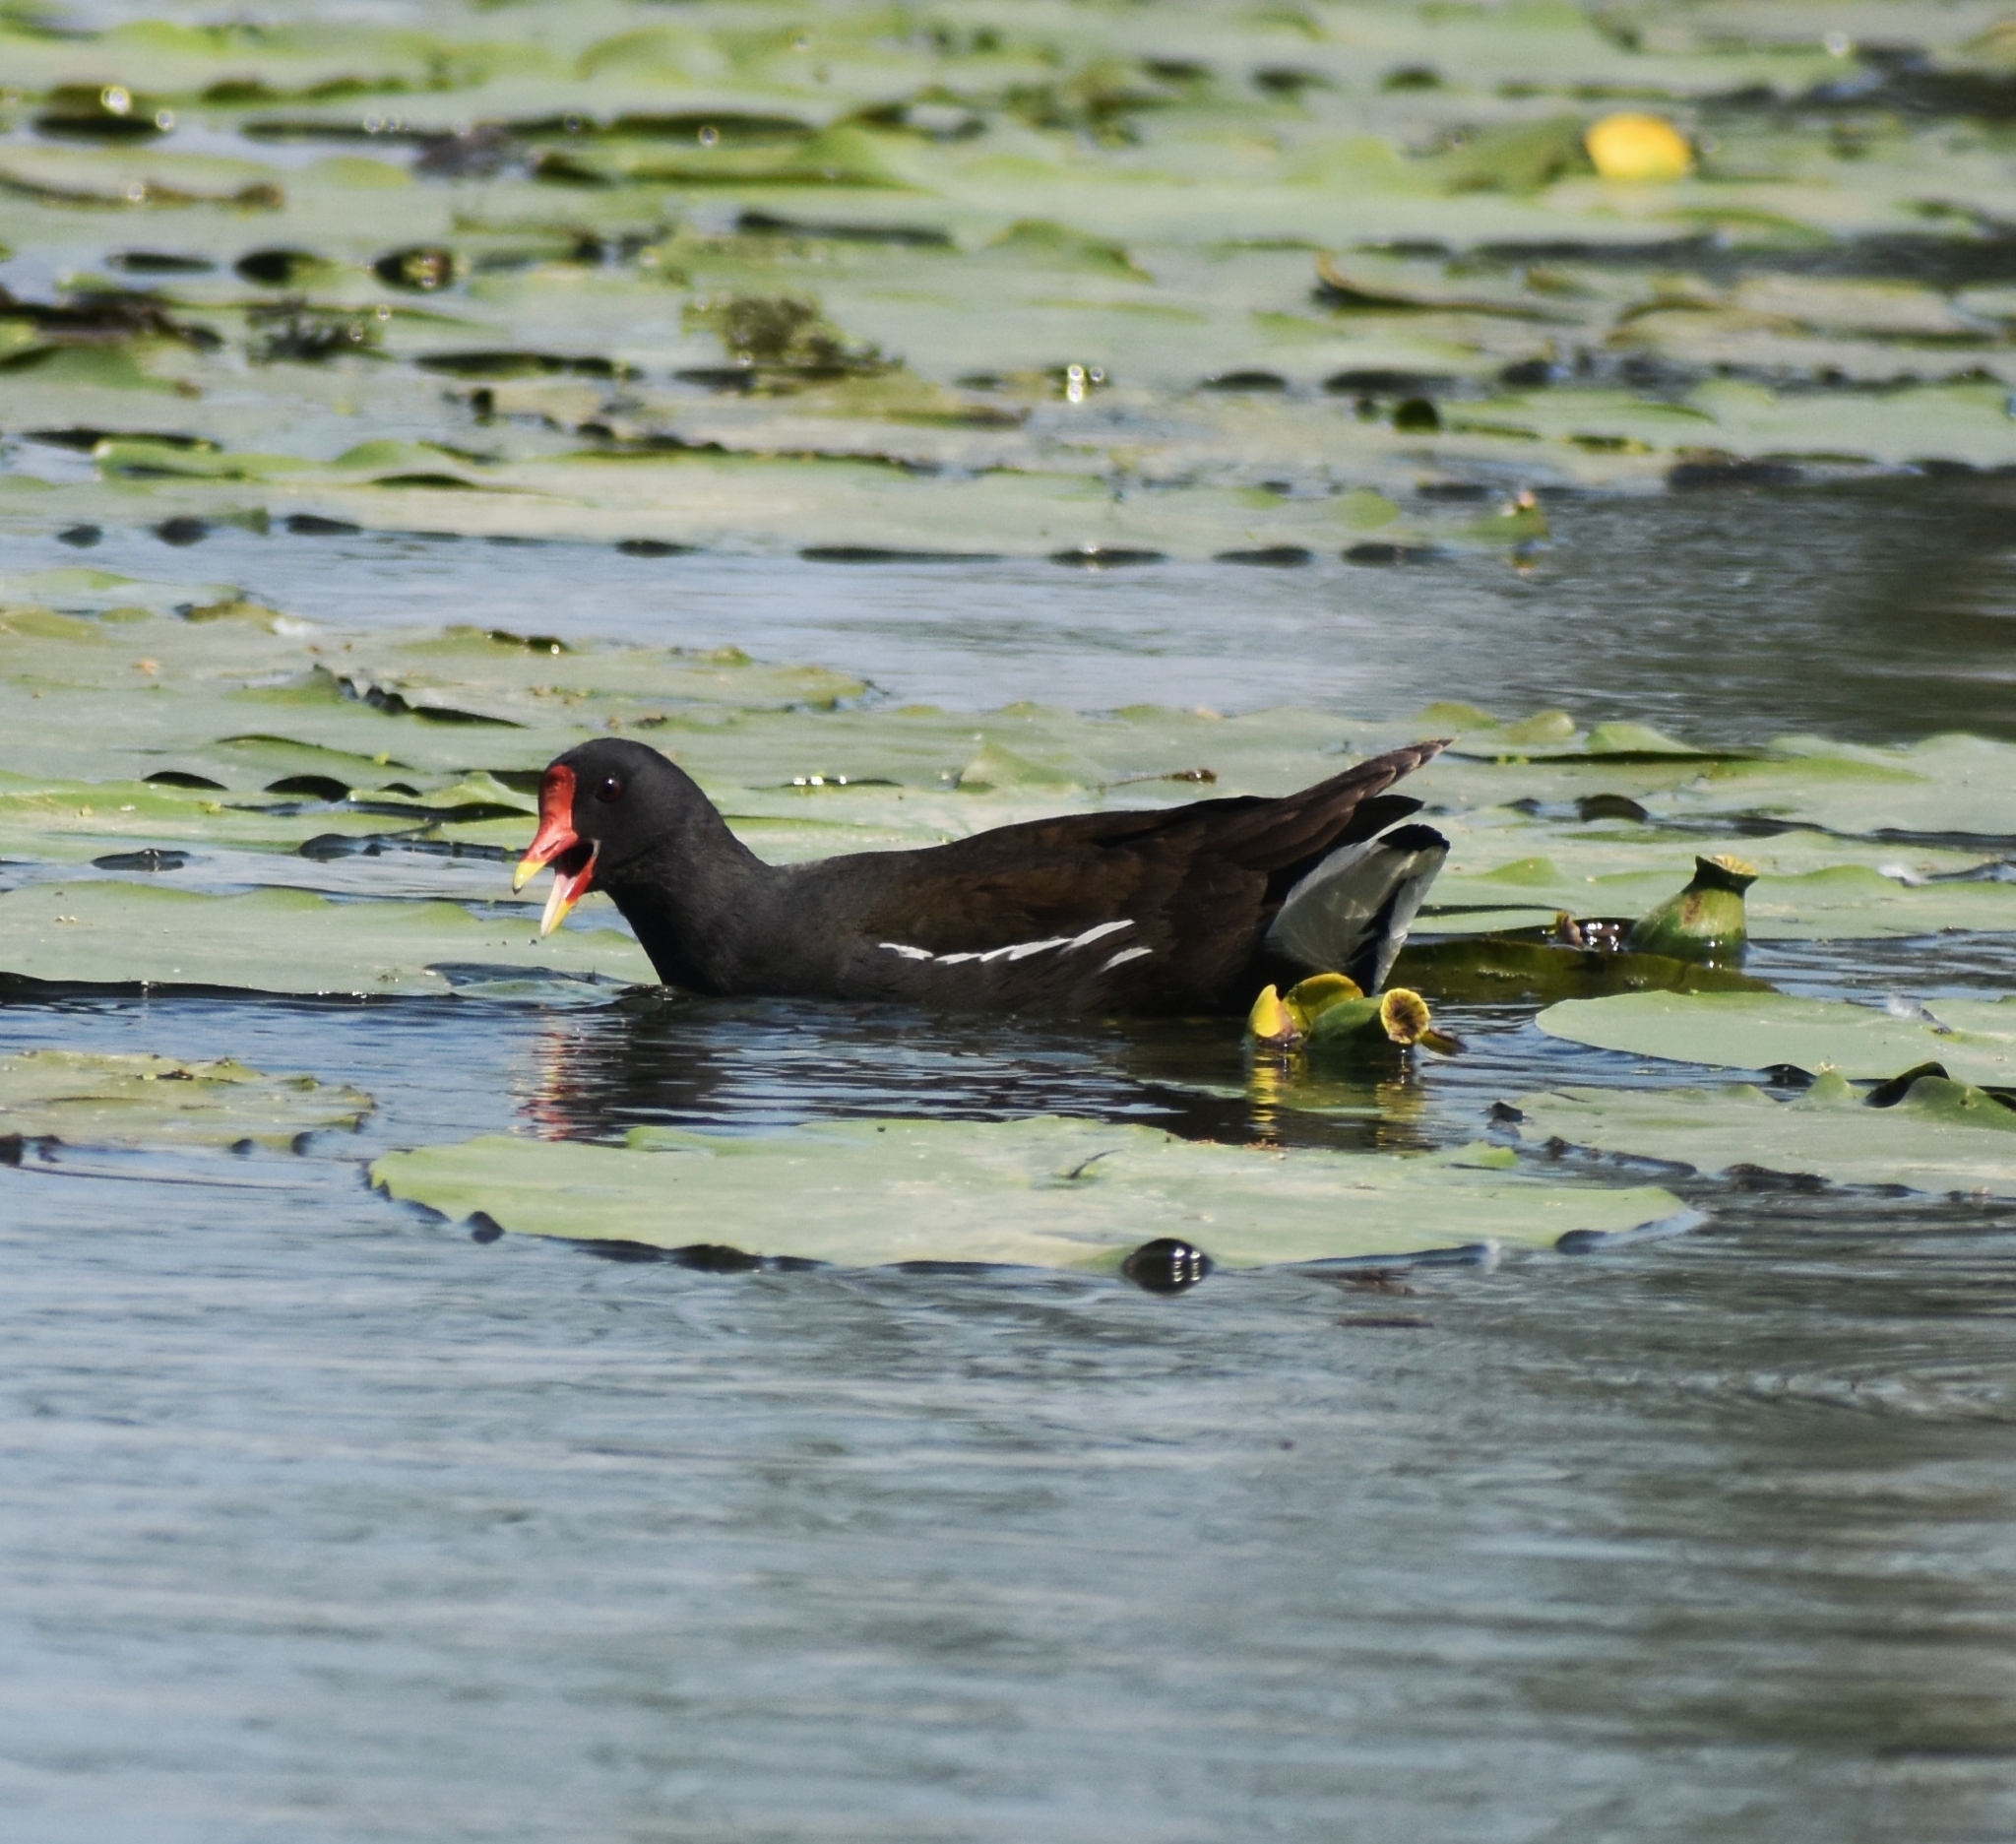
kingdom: Animalia
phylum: Chordata
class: Aves
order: Gruiformes
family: Rallidae
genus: Gallinula
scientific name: Gallinula chloropus
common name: Common moorhen
